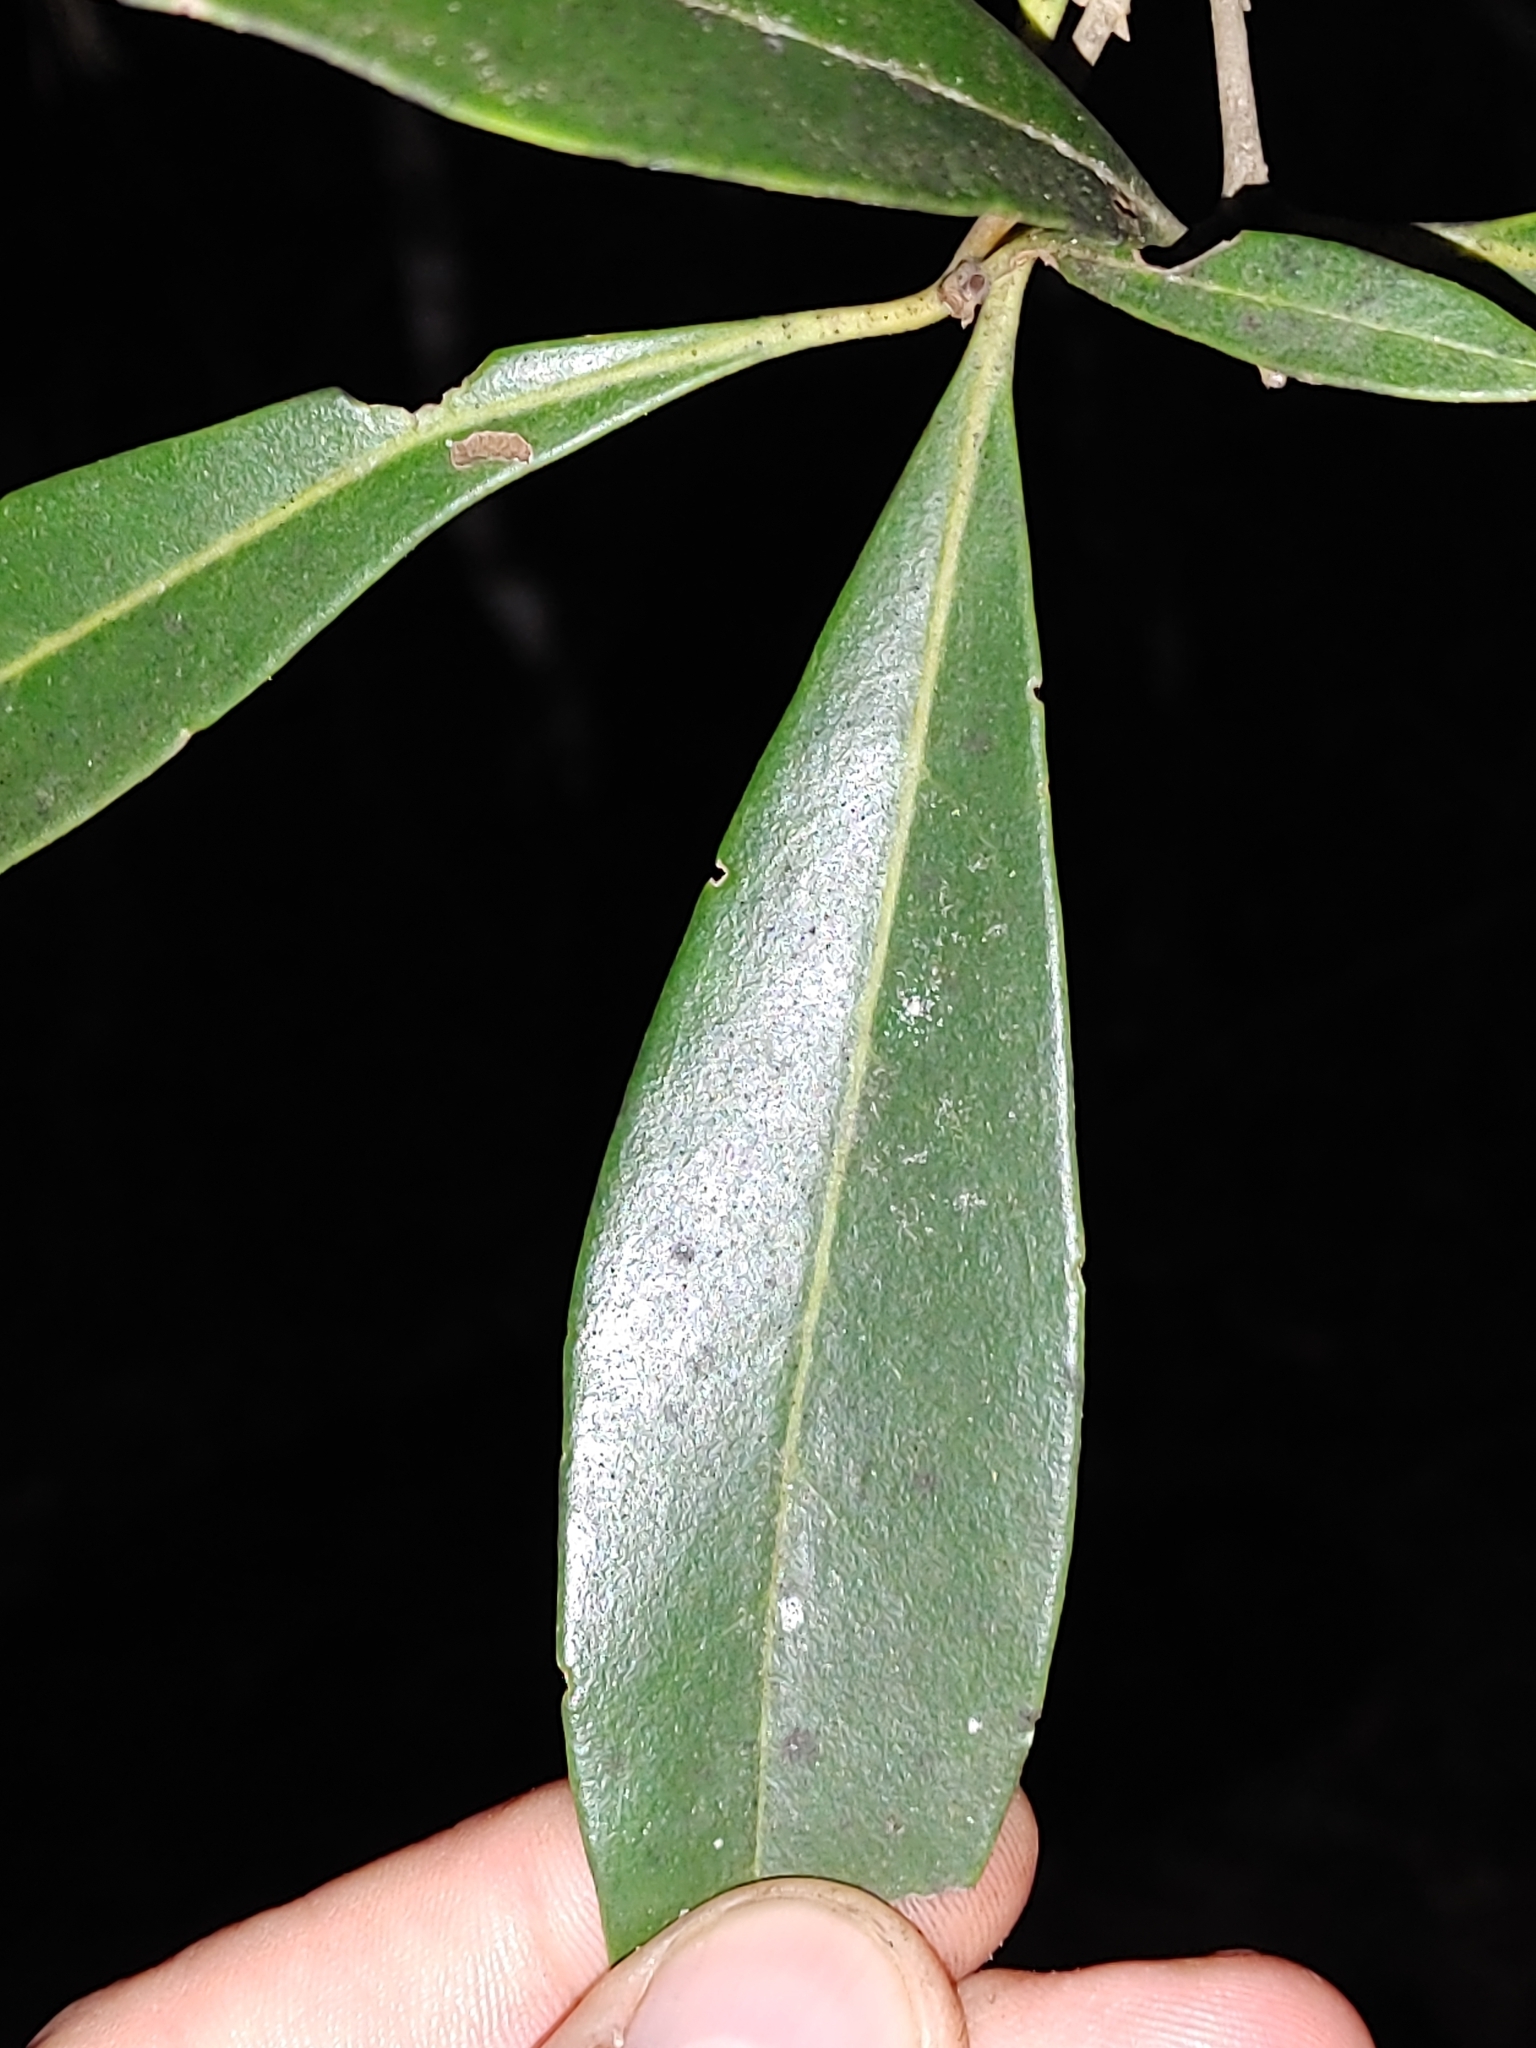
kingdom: Plantae
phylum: Tracheophyta
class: Magnoliopsida
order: Lamiales
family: Oleaceae
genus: Cartrema
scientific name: Cartrema americana
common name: Devilwood
